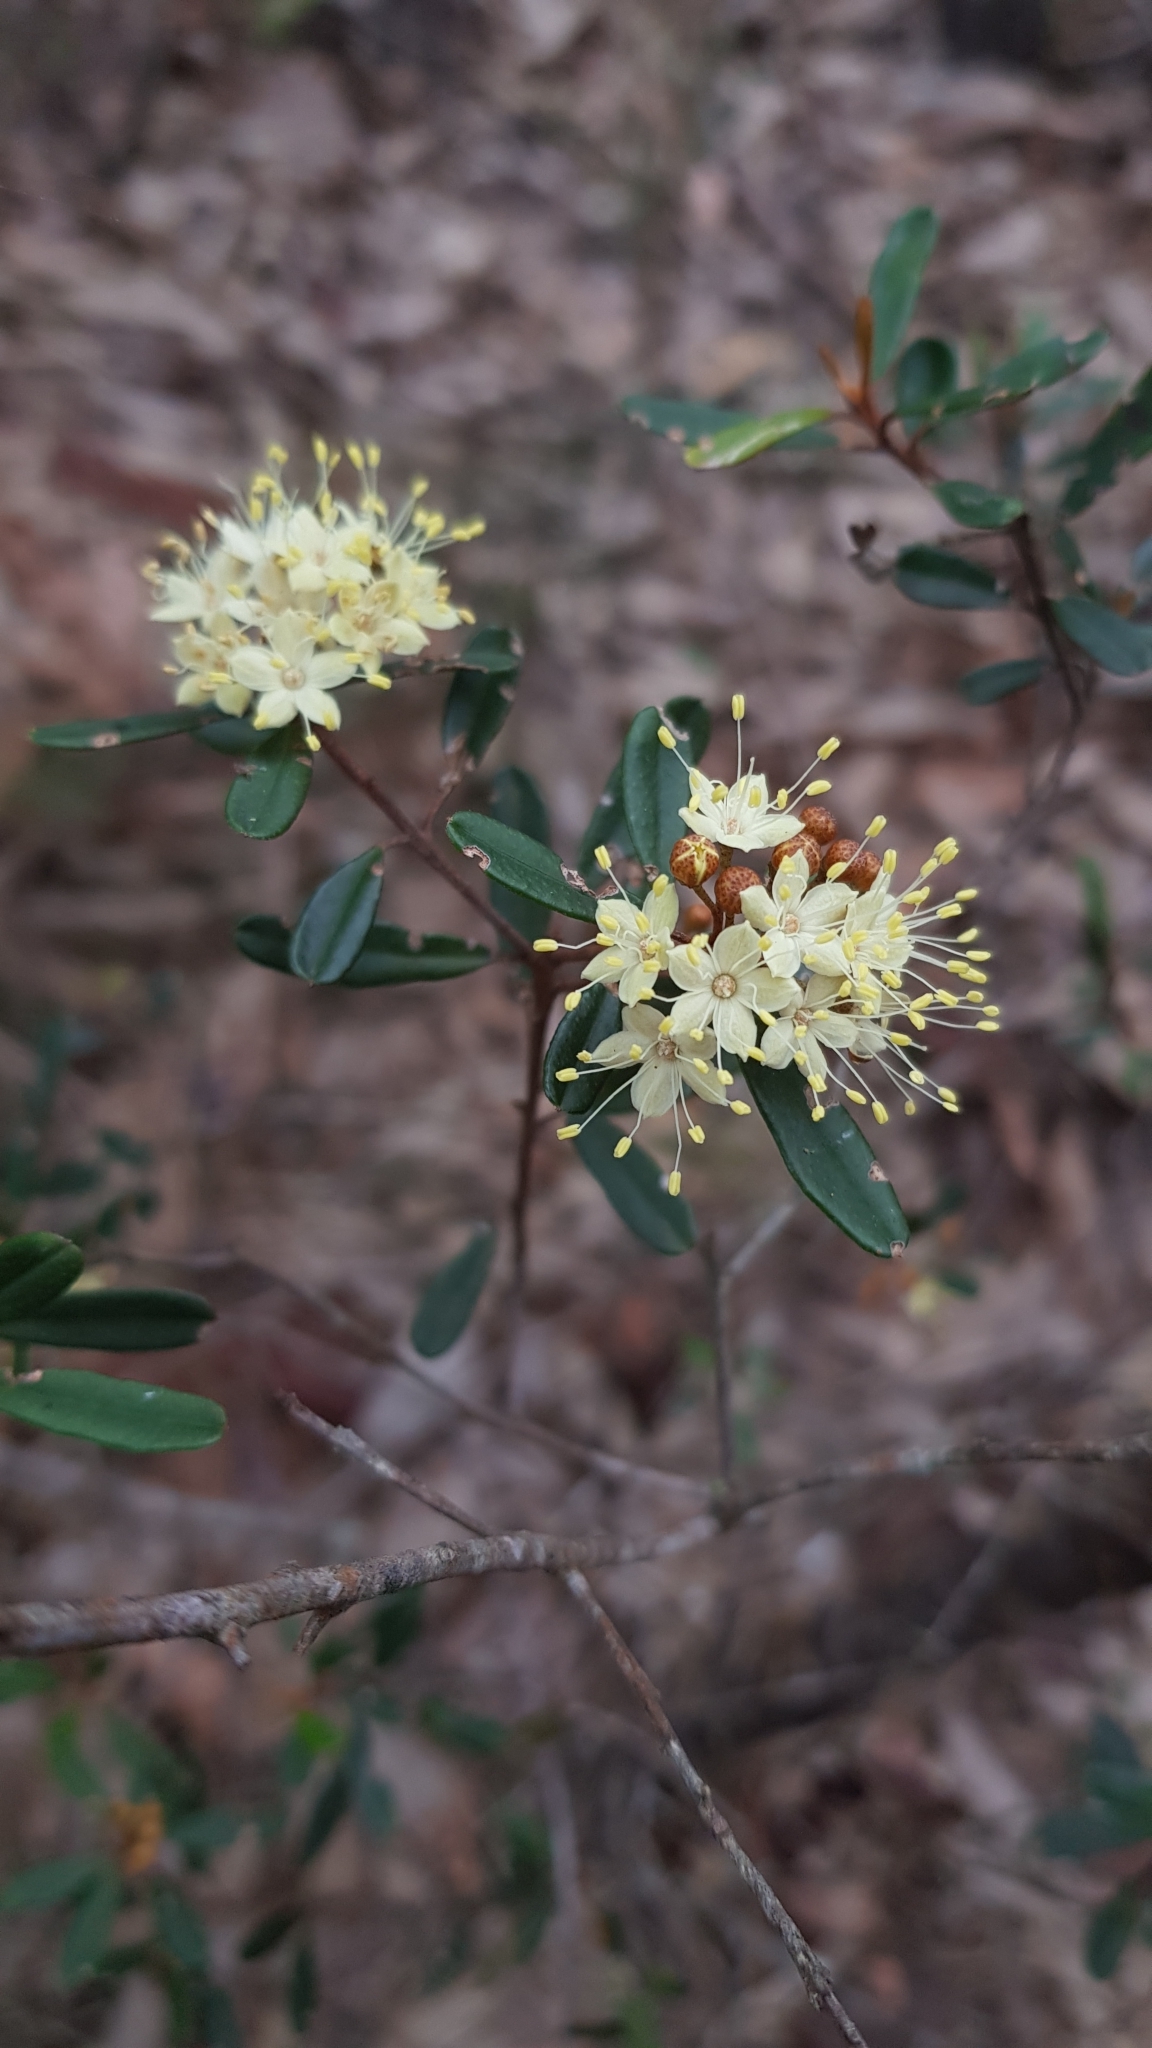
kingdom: Plantae
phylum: Tracheophyta
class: Magnoliopsida
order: Sapindales
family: Rutaceae
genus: Phebalium
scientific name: Phebalium squamulosum
